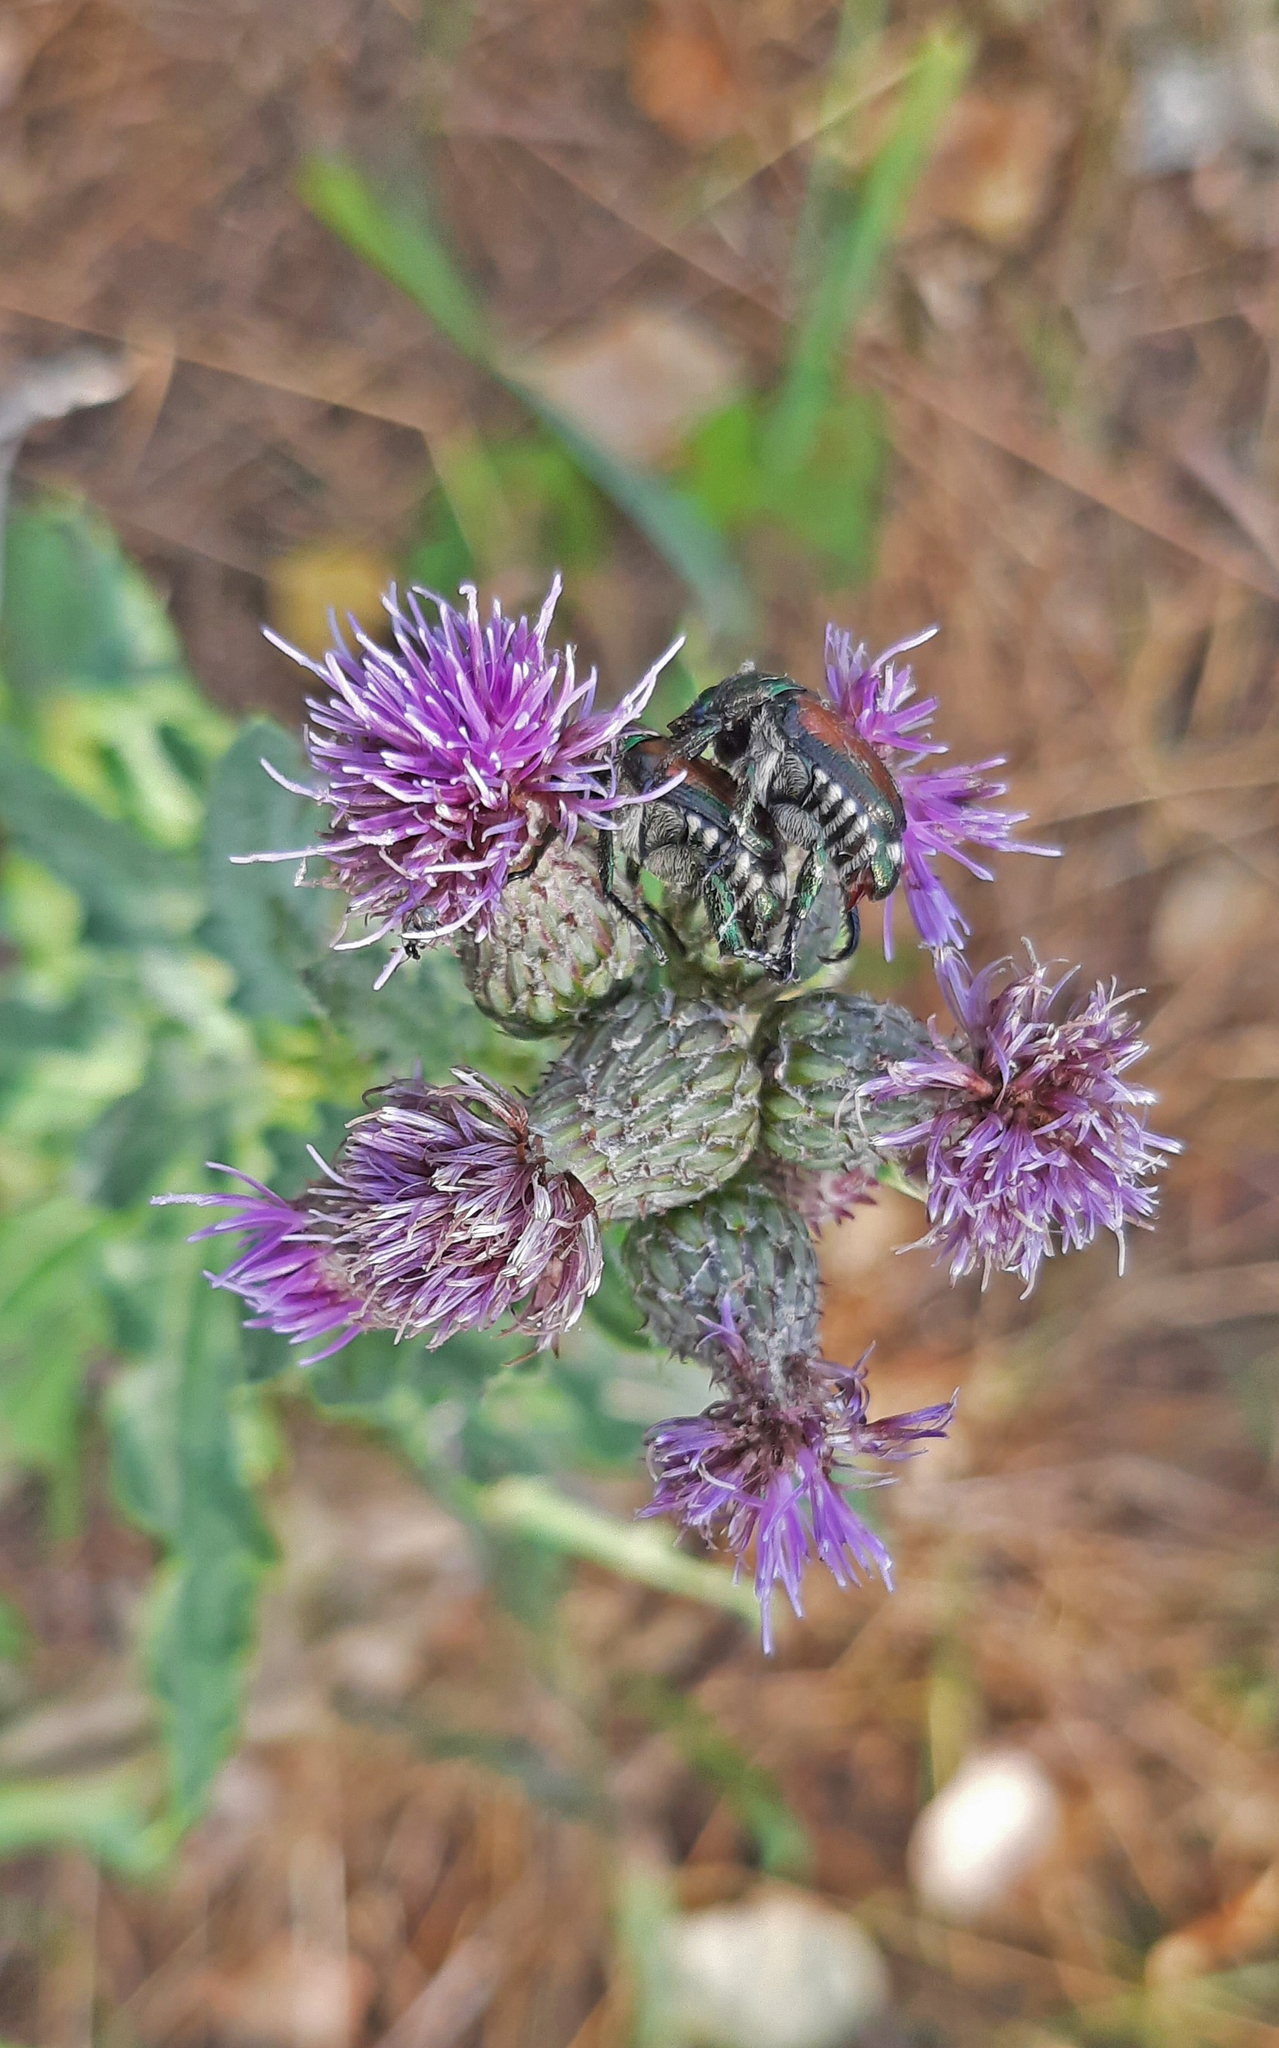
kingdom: Animalia
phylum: Arthropoda
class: Insecta
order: Coleoptera
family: Scarabaeidae
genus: Popillia
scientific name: Popillia japonica
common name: Japanese beetle
